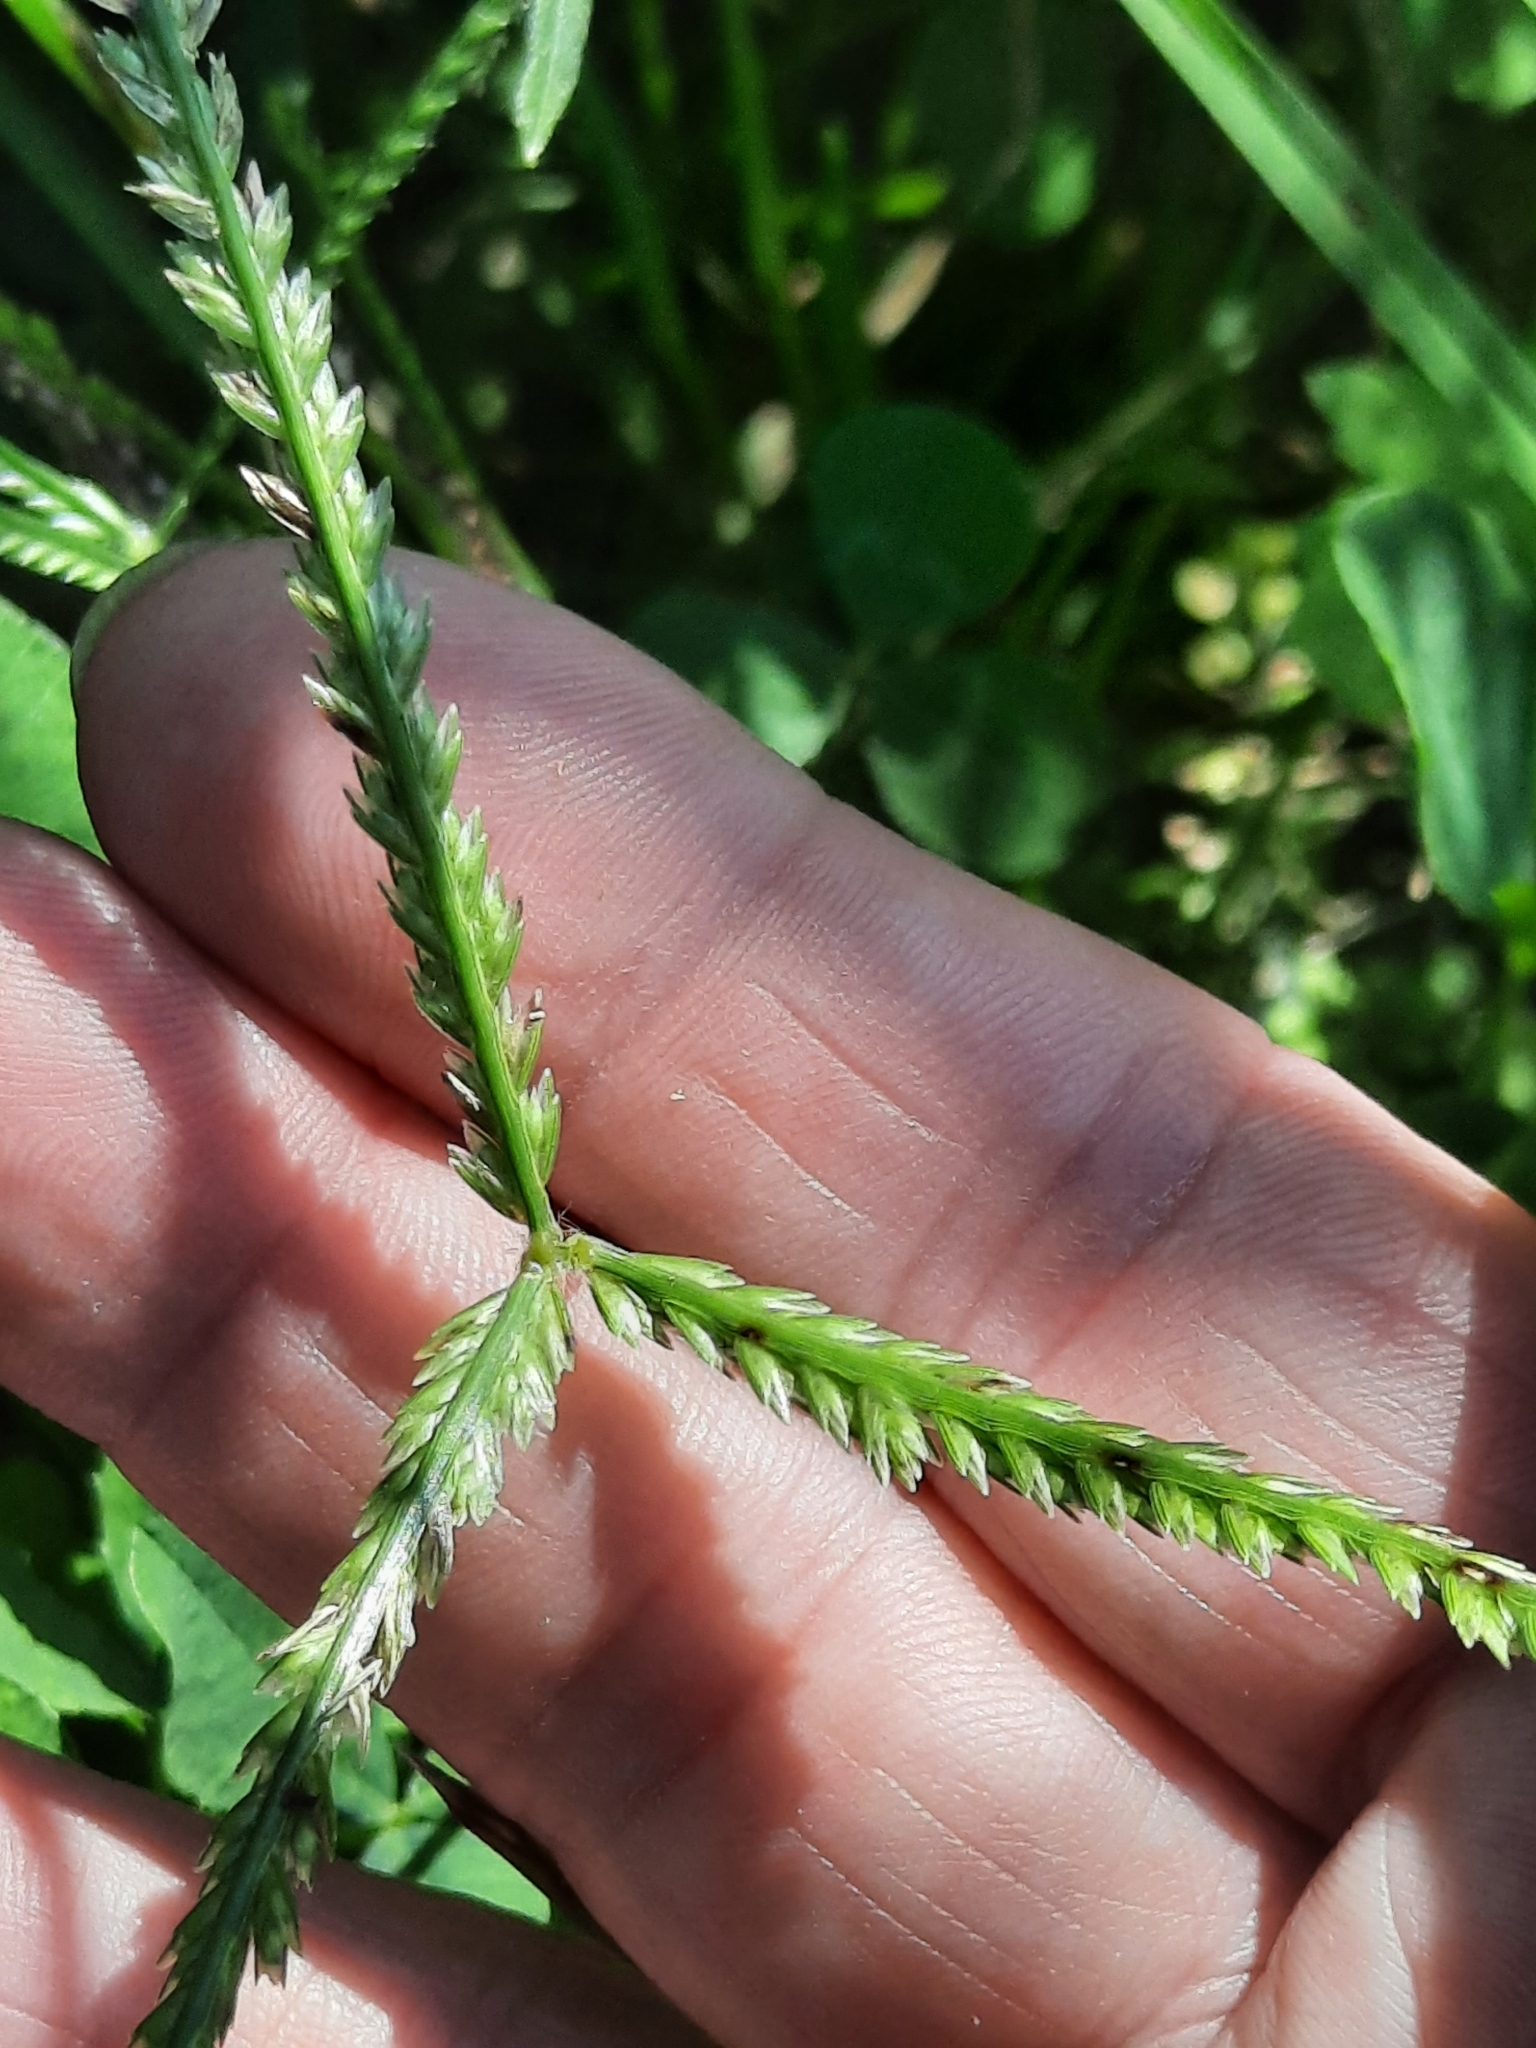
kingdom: Plantae
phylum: Tracheophyta
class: Liliopsida
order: Poales
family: Poaceae
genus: Eleusine
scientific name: Eleusine indica
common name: Yard-grass
